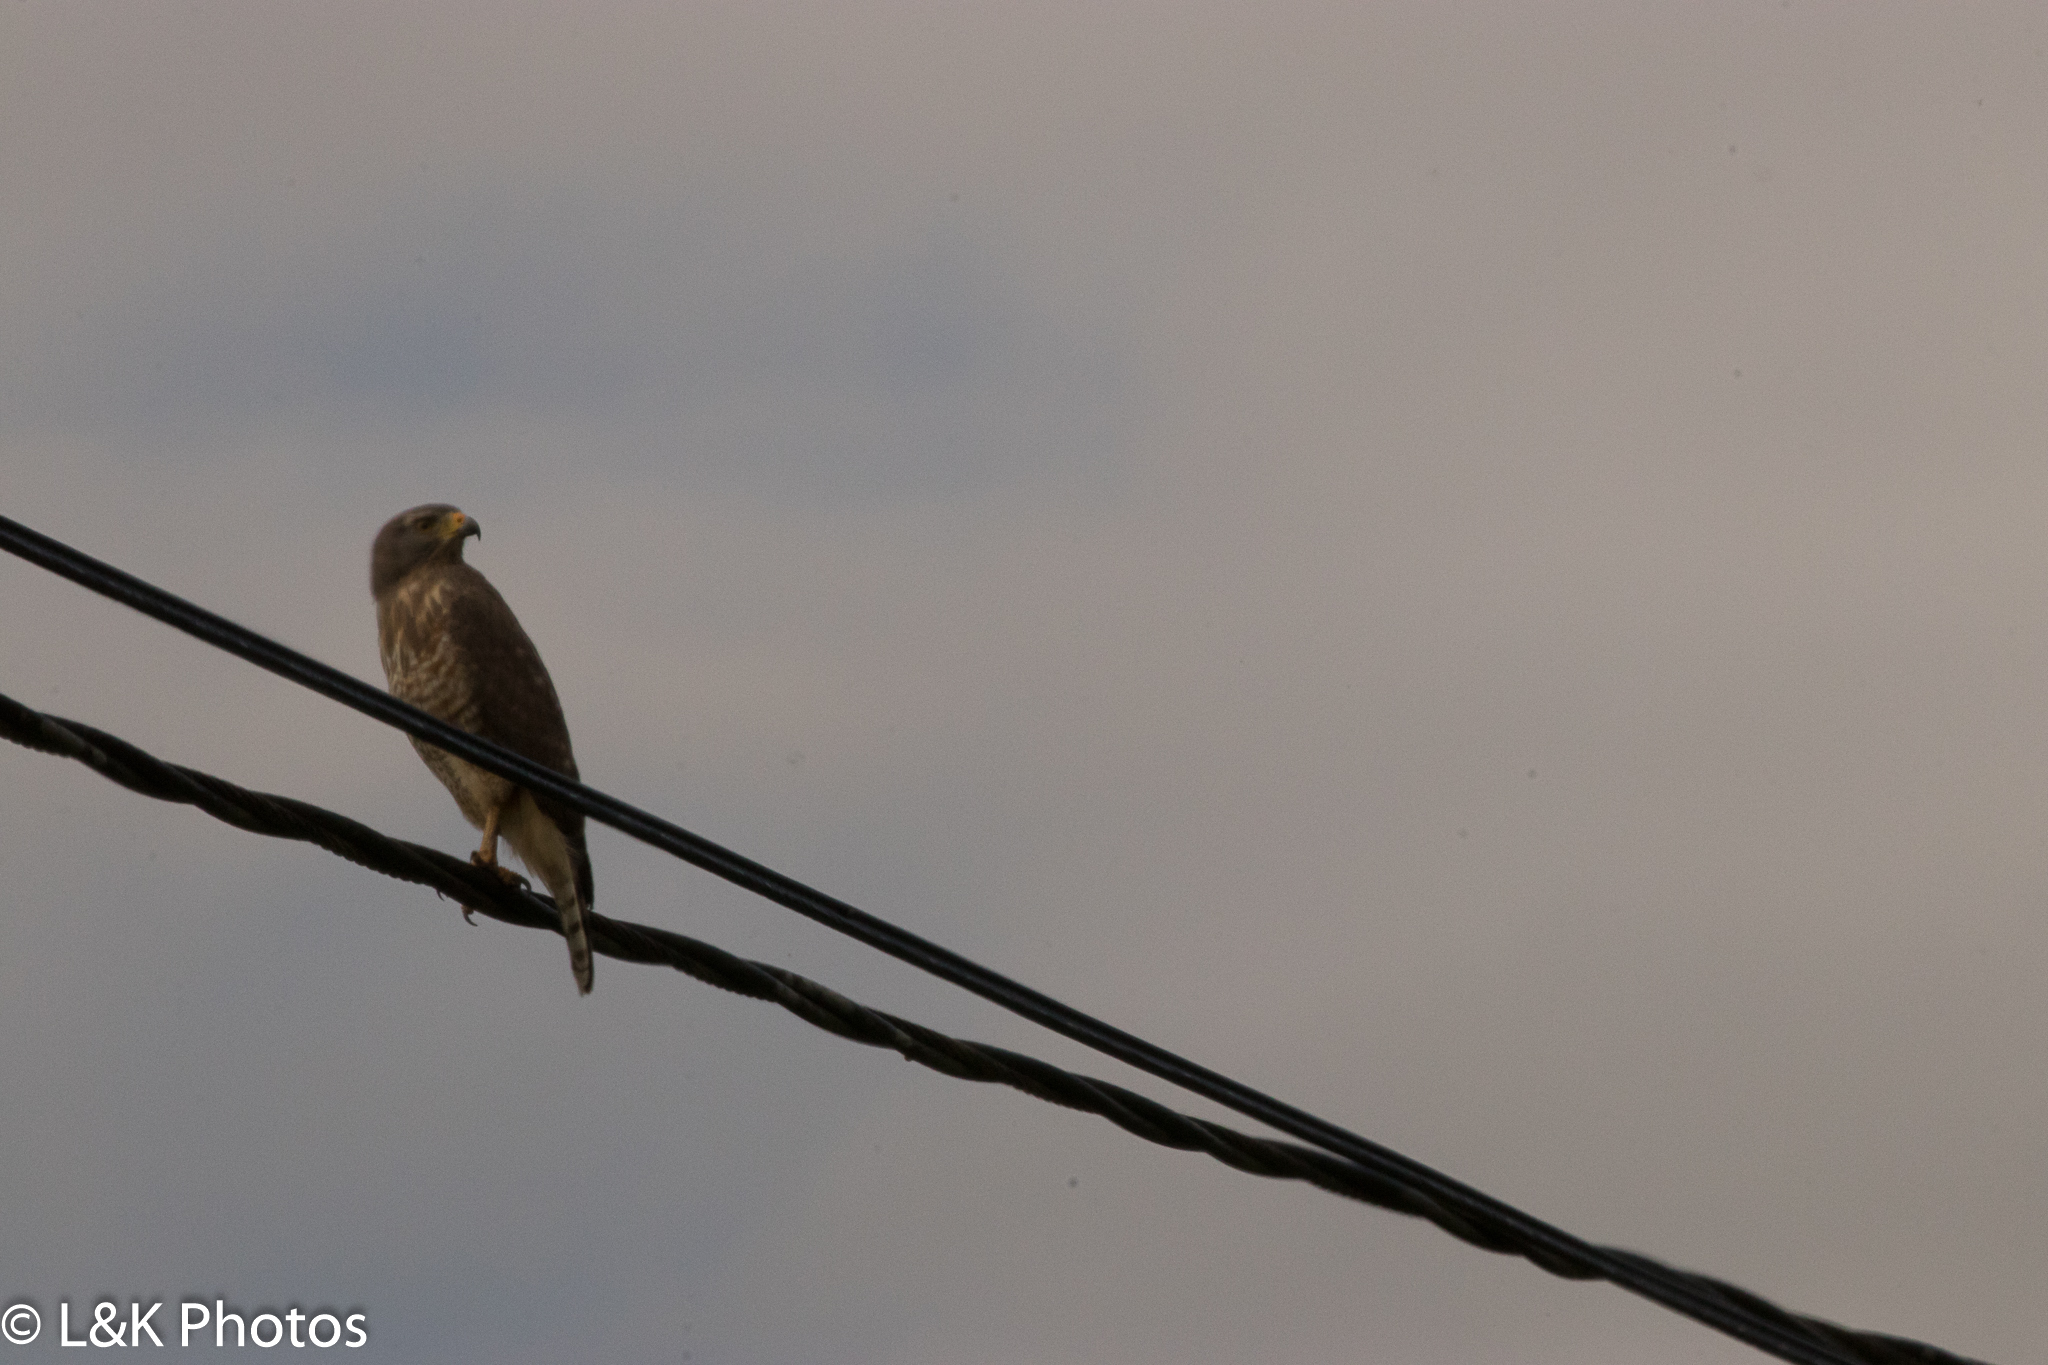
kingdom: Animalia
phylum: Chordata
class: Aves
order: Accipitriformes
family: Accipitridae
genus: Rupornis
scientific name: Rupornis magnirostris
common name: Roadside hawk
